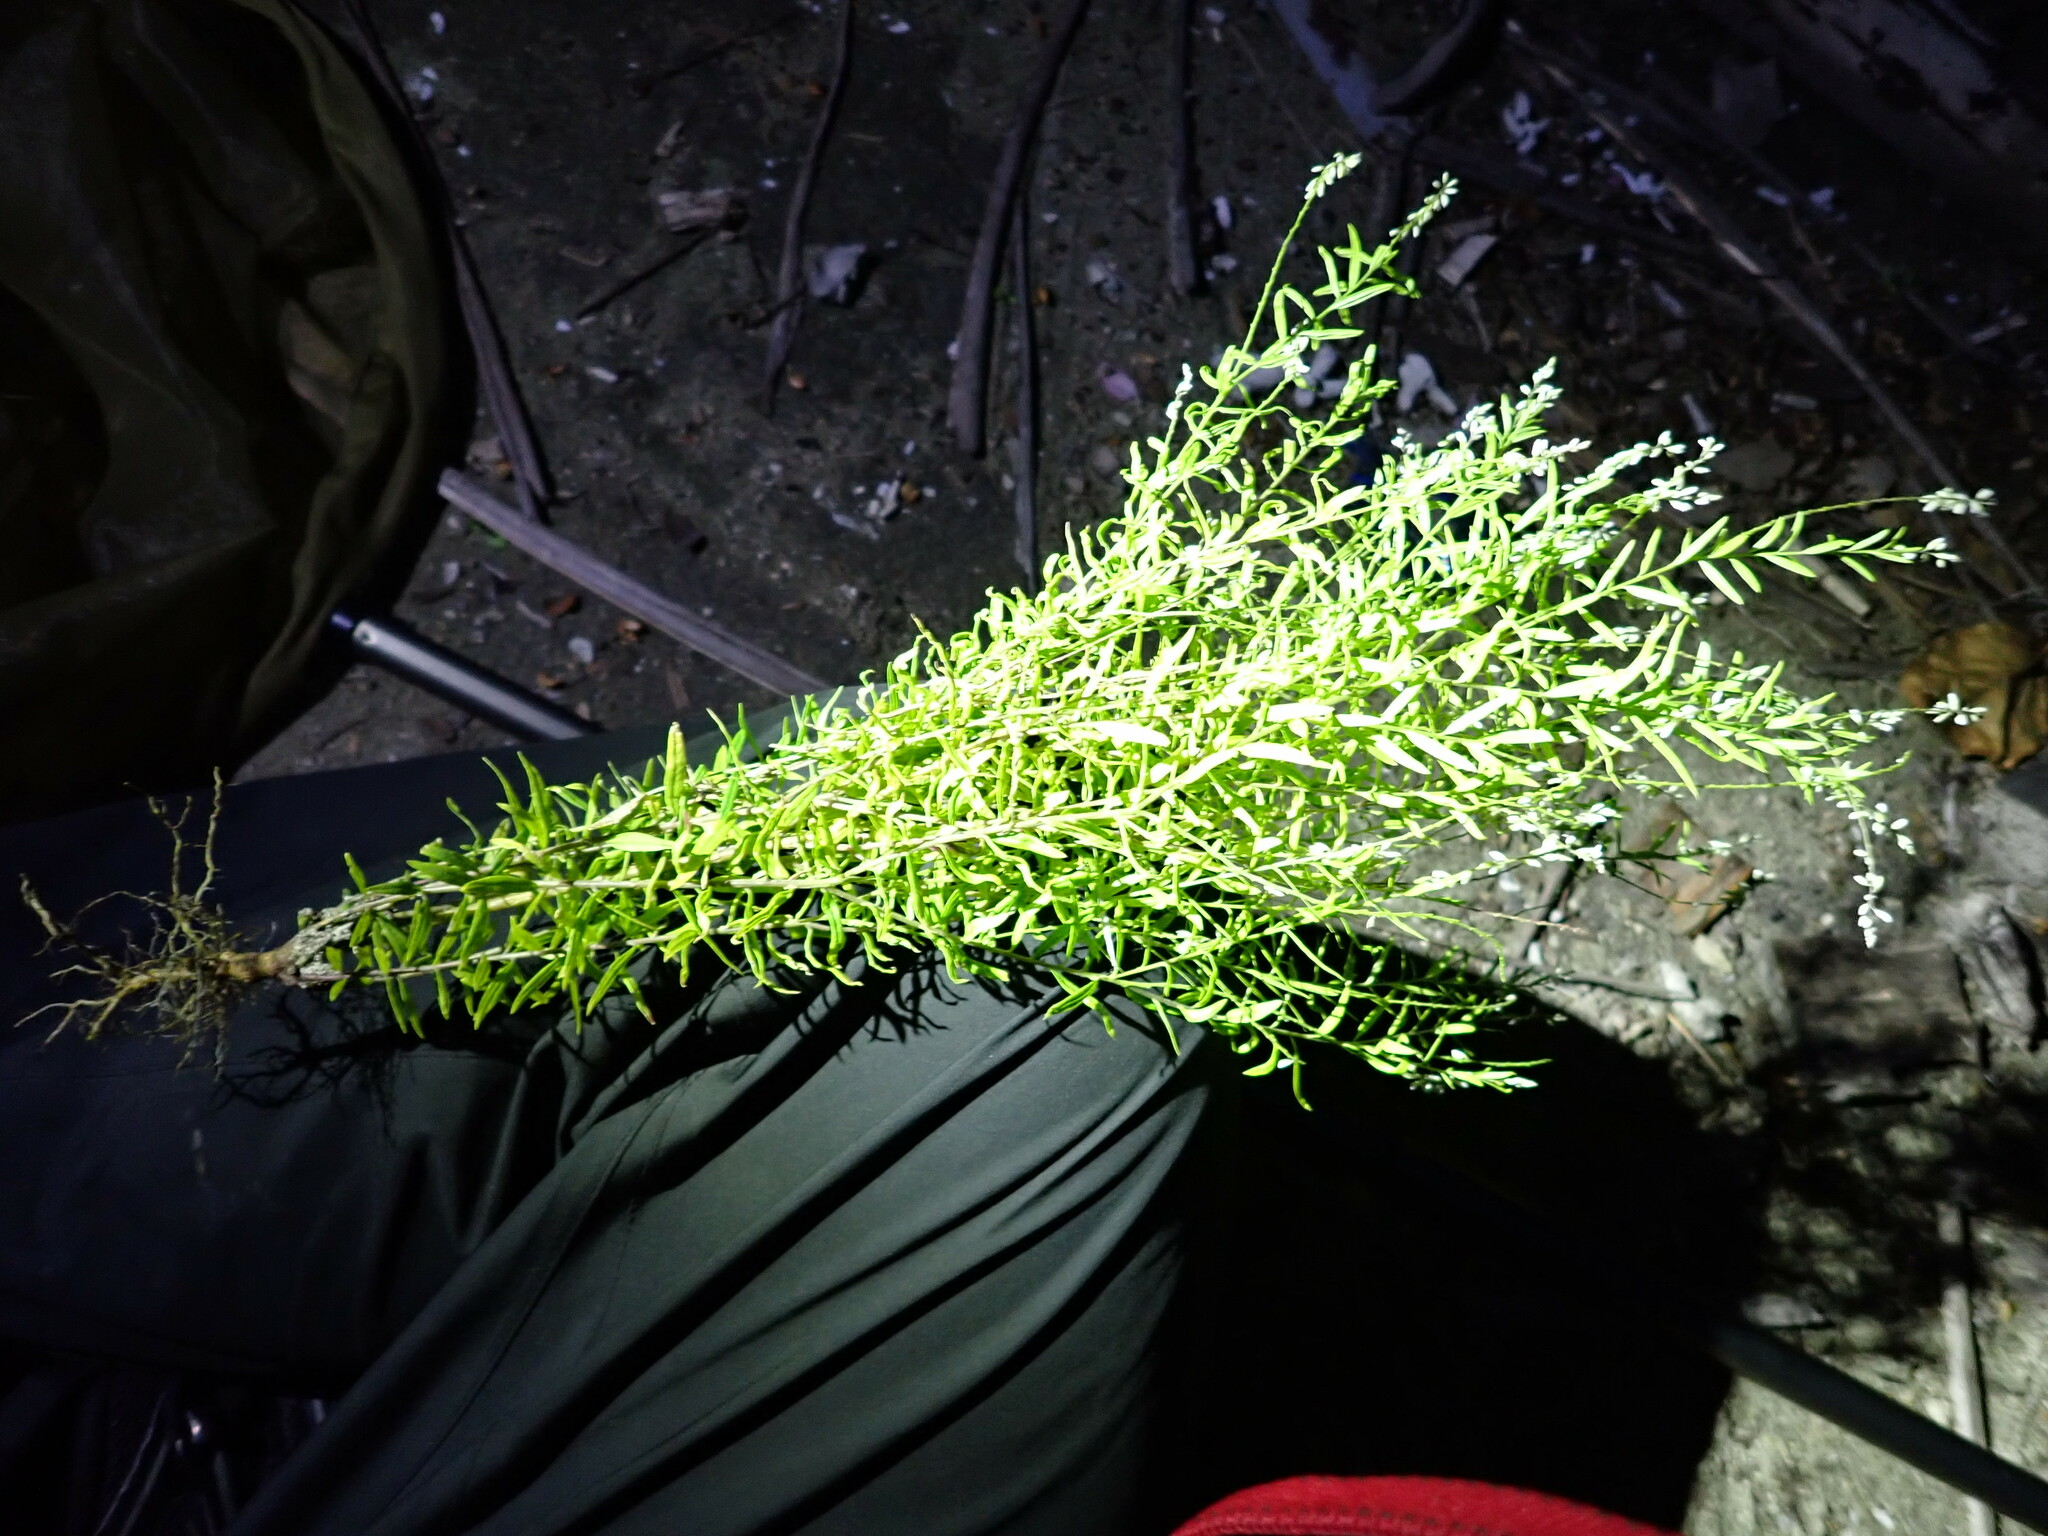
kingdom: Plantae
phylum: Tracheophyta
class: Magnoliopsida
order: Fabales
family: Polygalaceae
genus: Polygala
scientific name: Polygala paniculata
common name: Orosne
